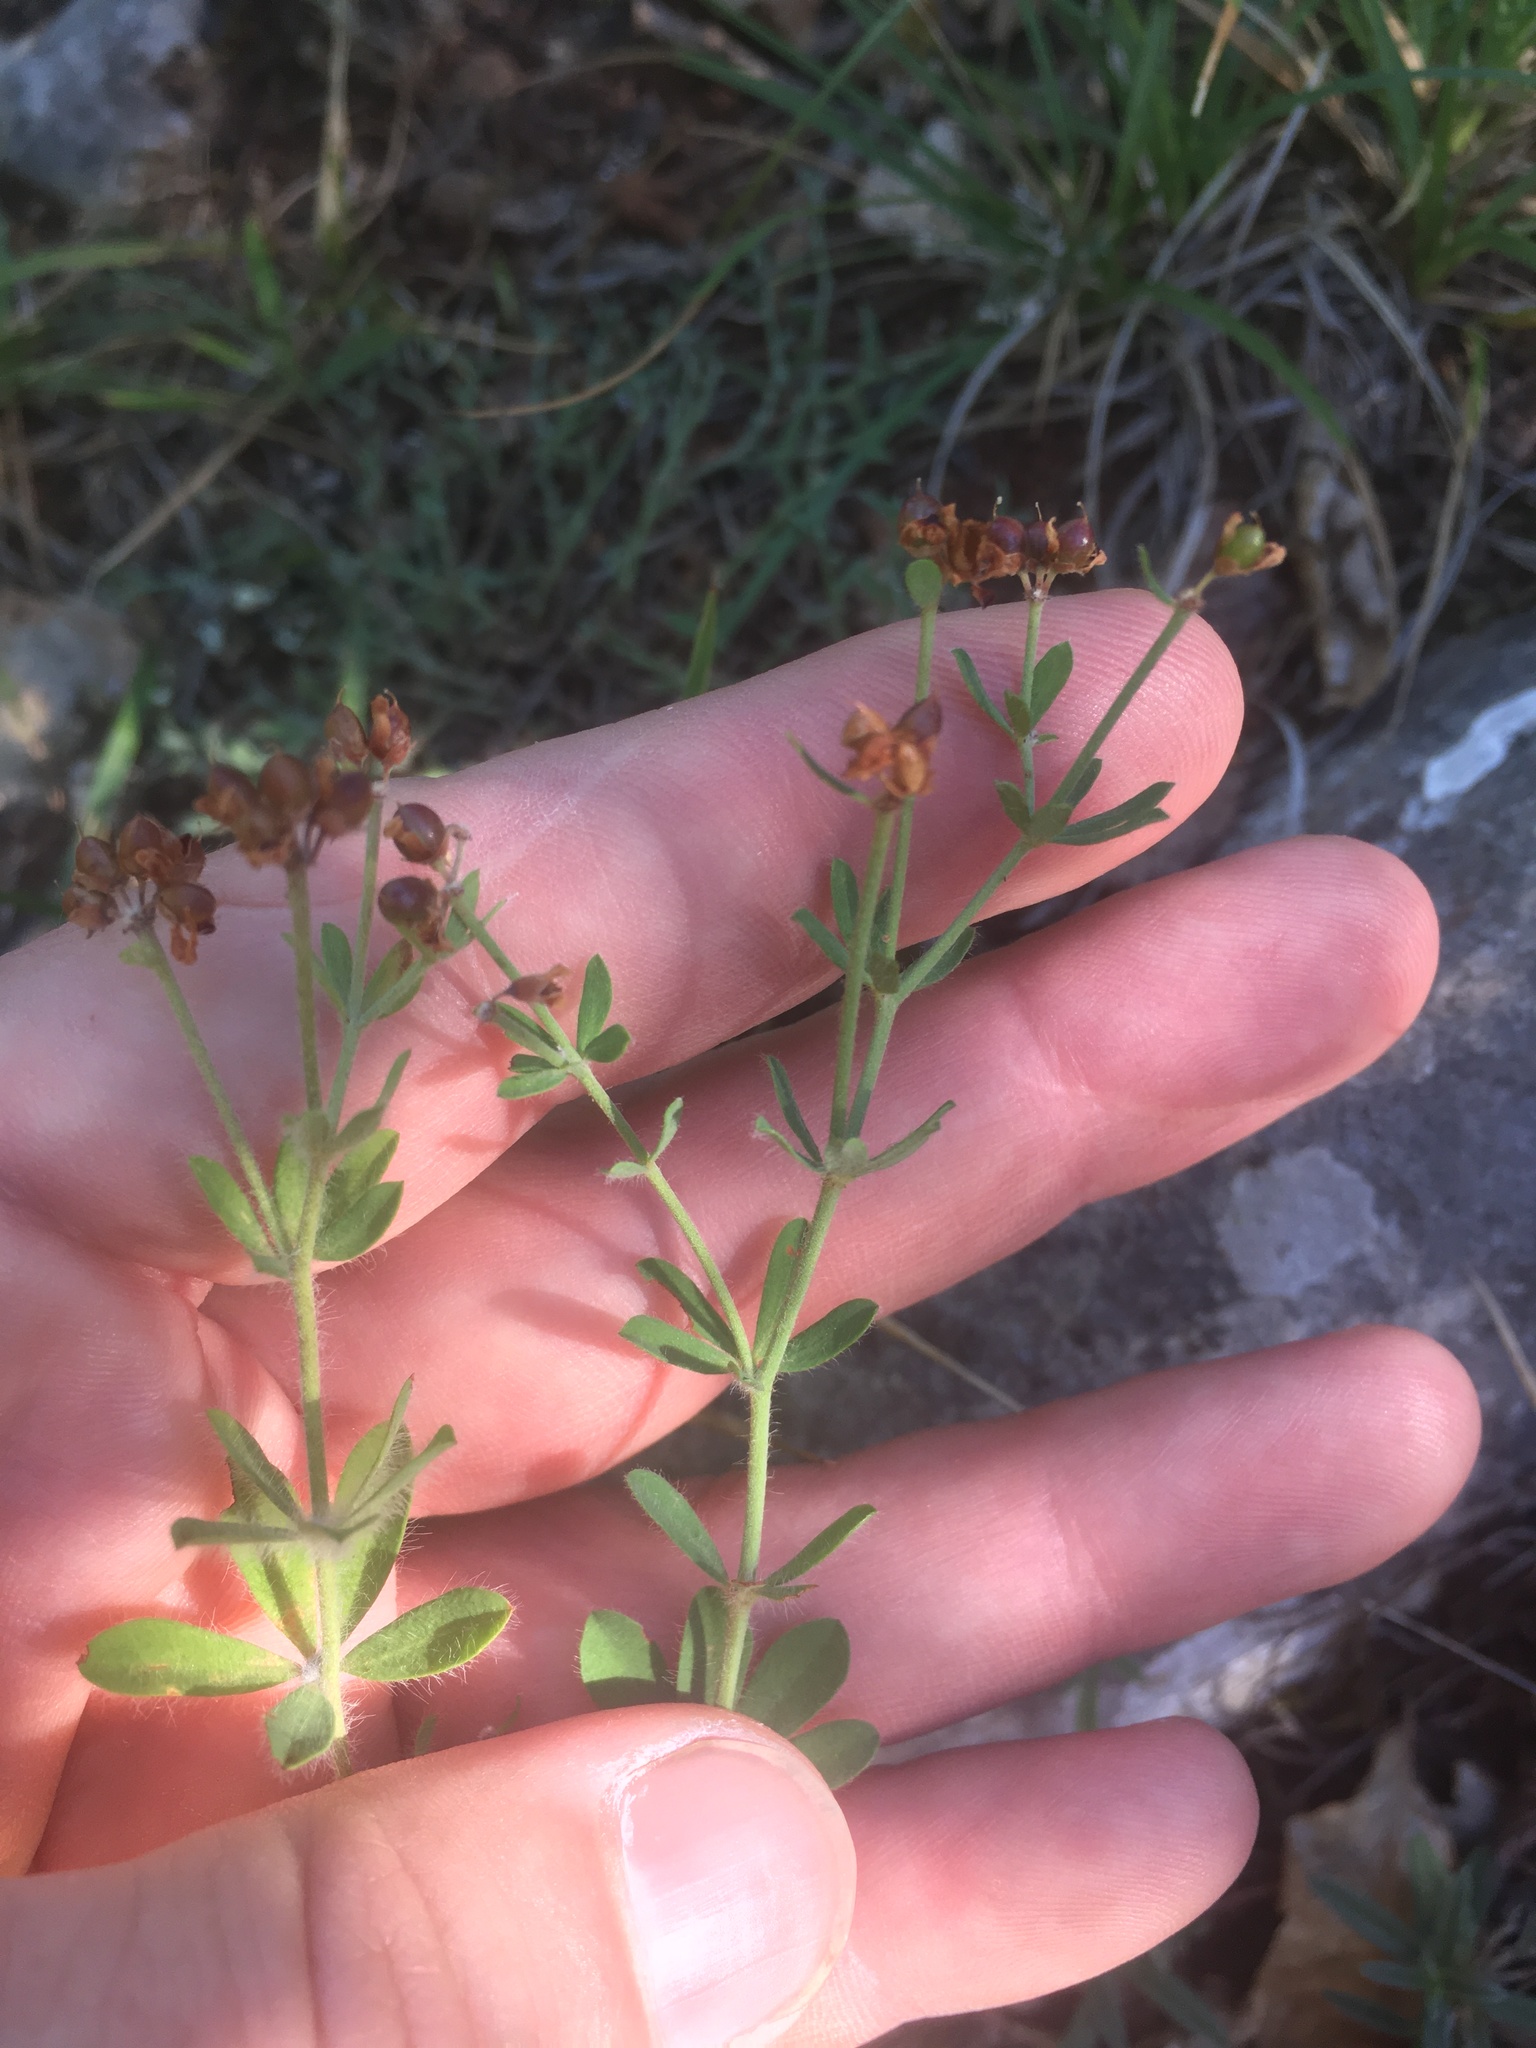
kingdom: Plantae
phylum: Tracheophyta
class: Magnoliopsida
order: Fabales
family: Fabaceae
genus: Lotus
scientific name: Lotus herbaceus
